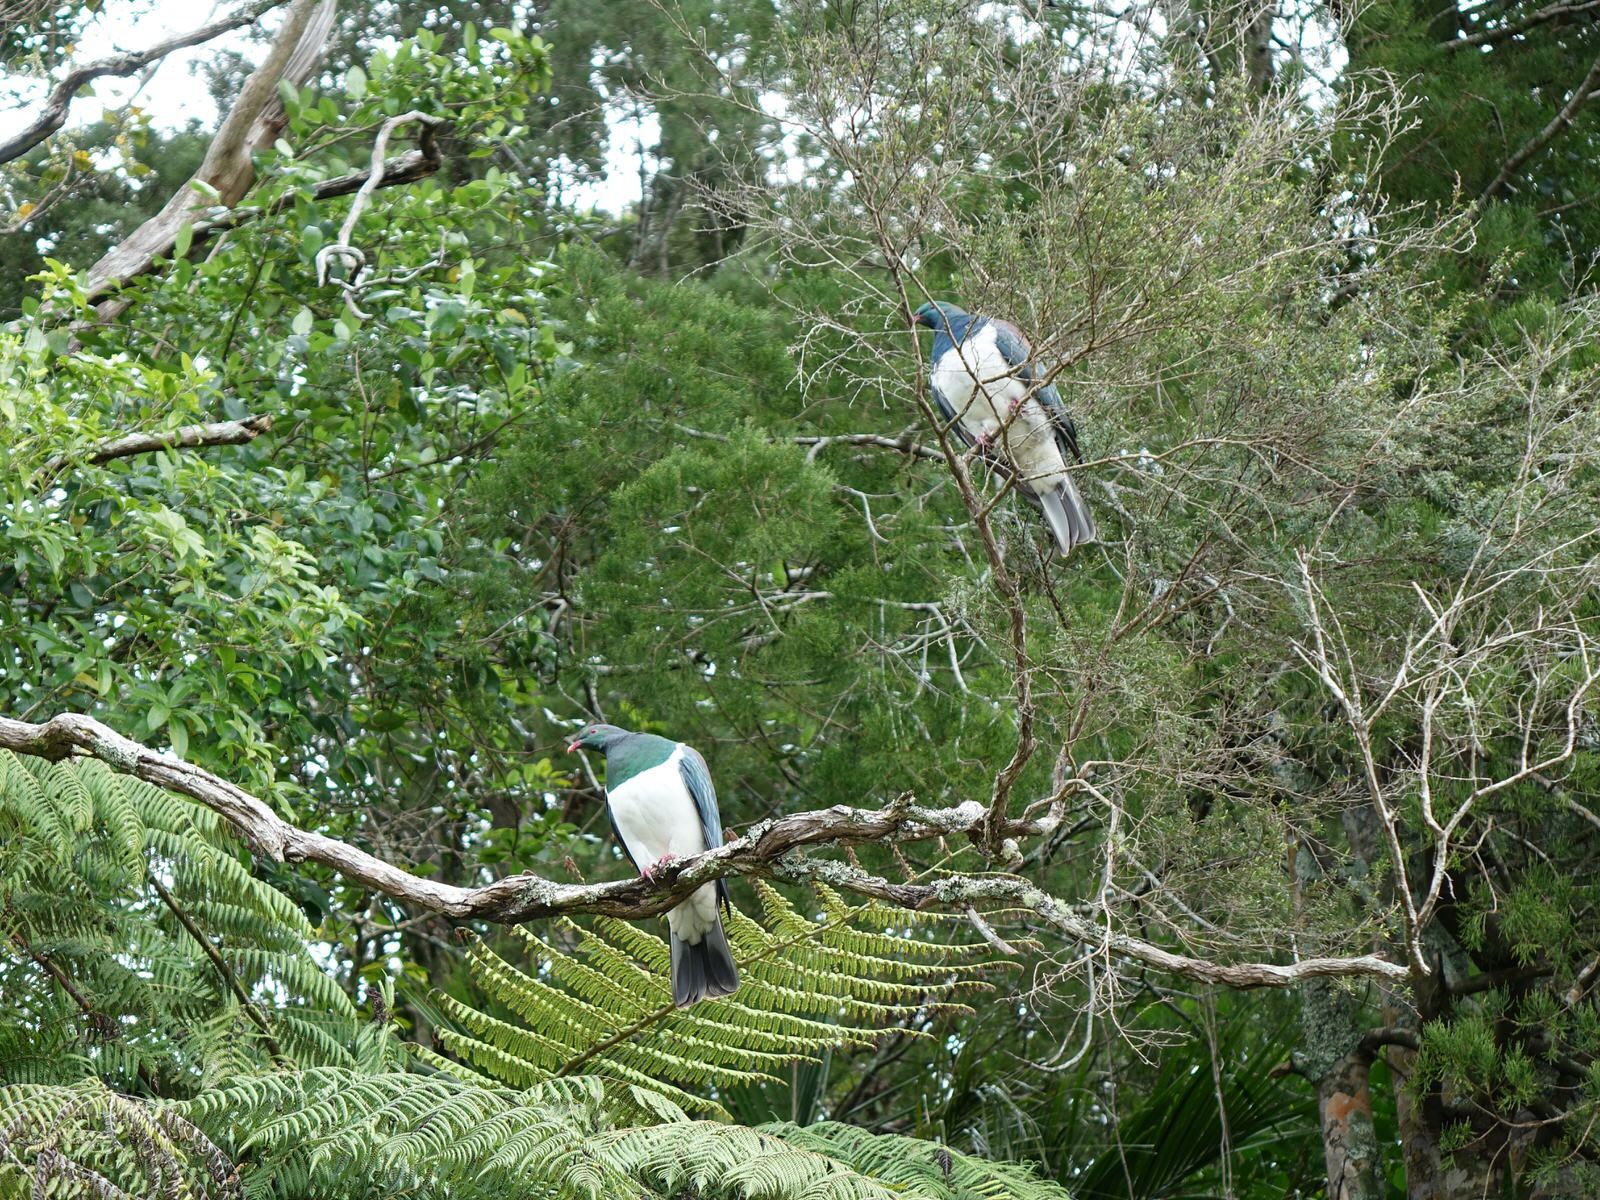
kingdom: Animalia
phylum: Chordata
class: Aves
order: Columbiformes
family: Columbidae
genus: Hemiphaga
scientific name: Hemiphaga novaeseelandiae
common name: New zealand pigeon
